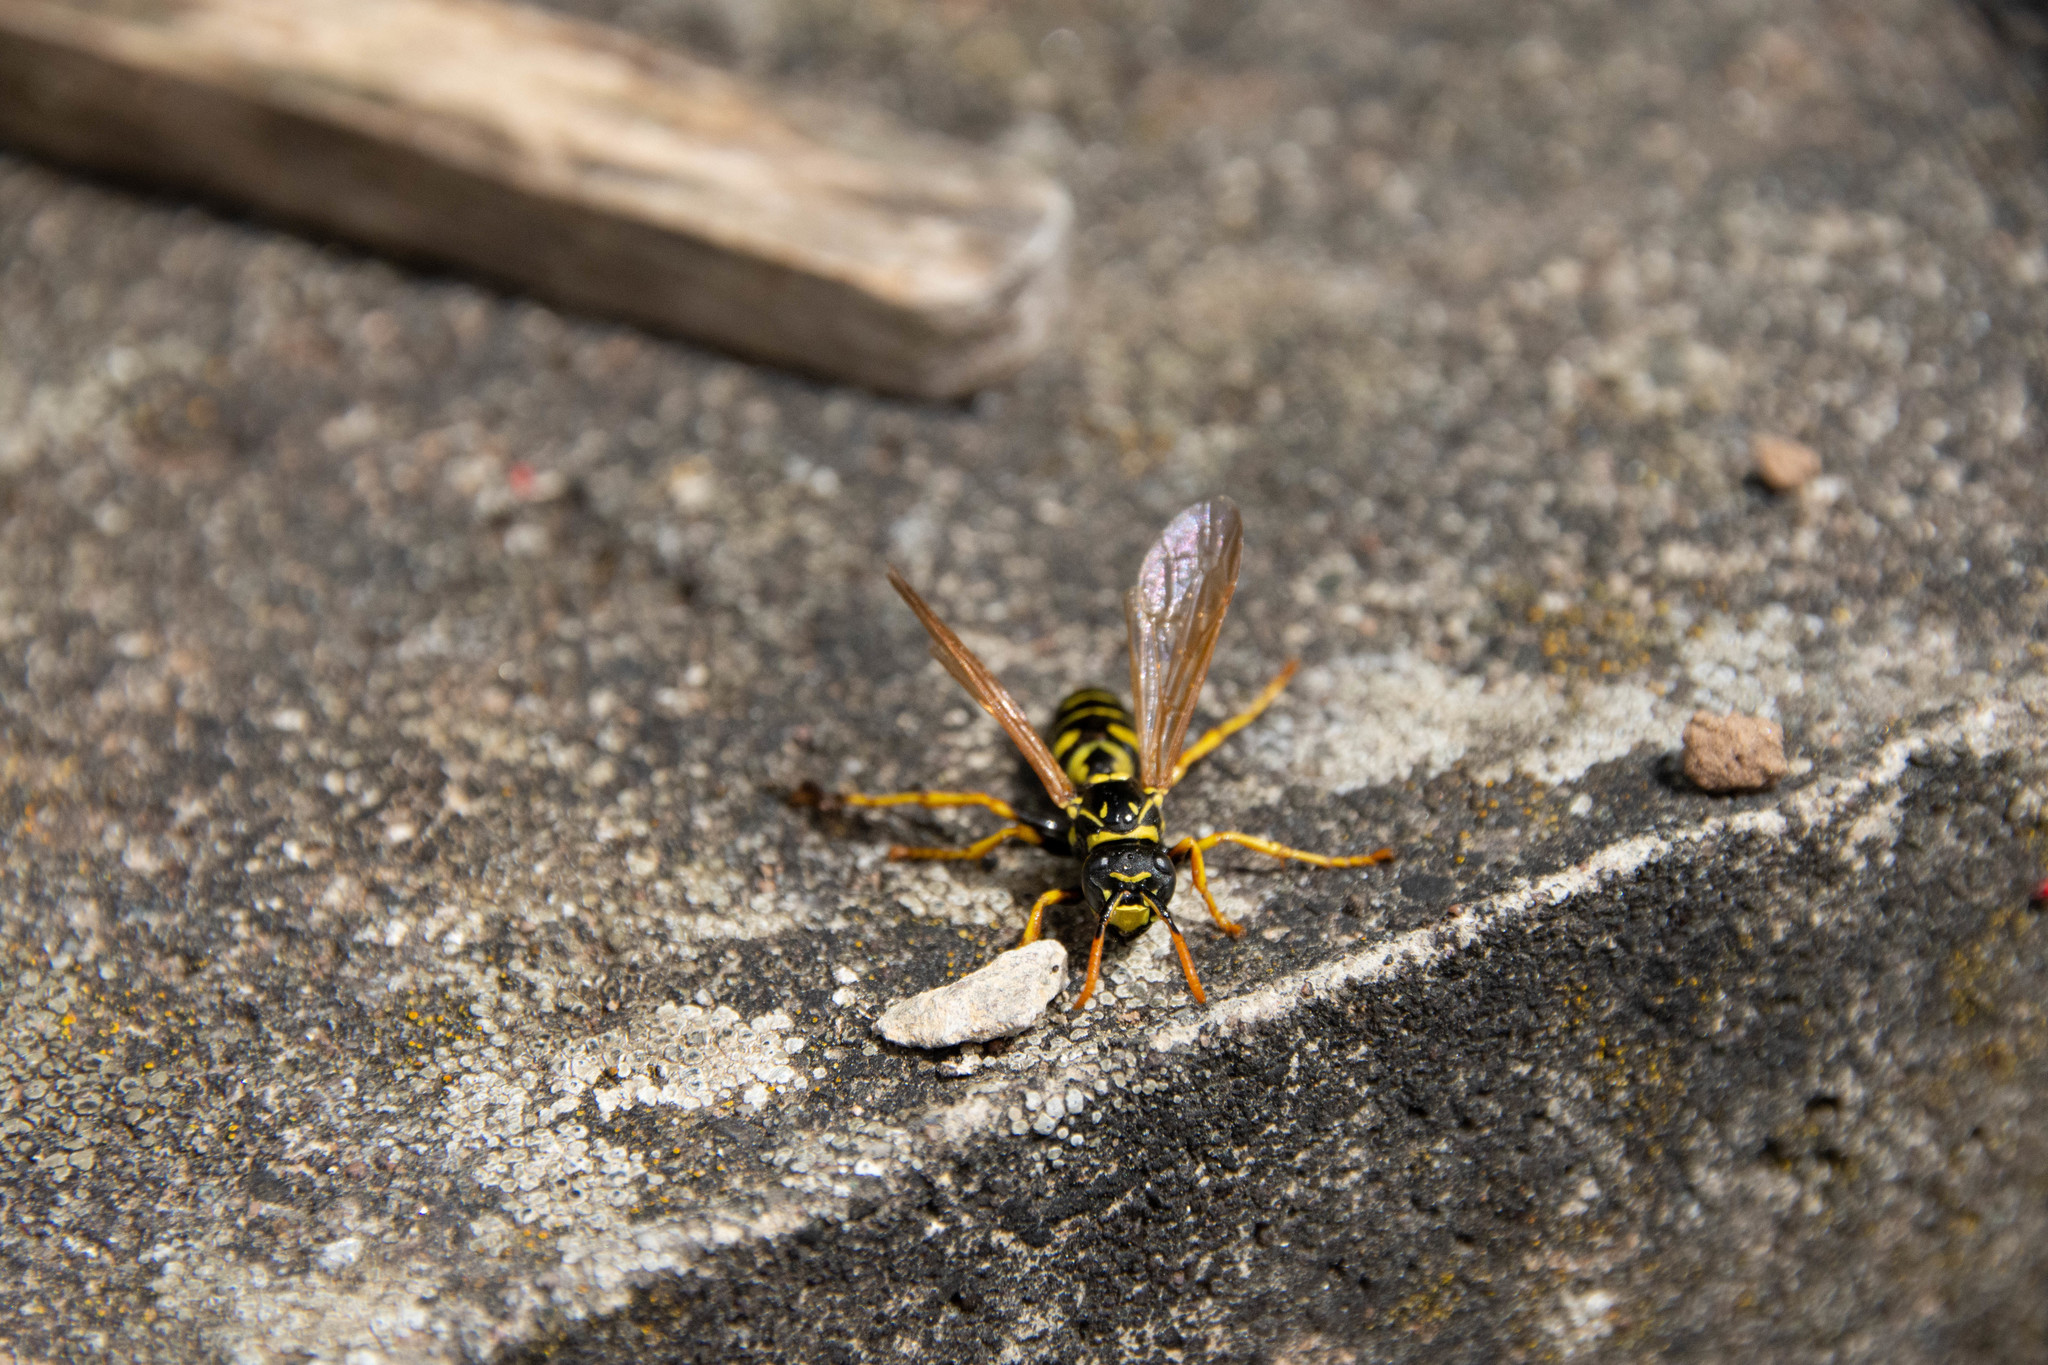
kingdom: Animalia
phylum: Arthropoda
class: Insecta
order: Hymenoptera
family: Eumenidae
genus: Polistes
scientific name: Polistes dominula
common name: Paper wasp
